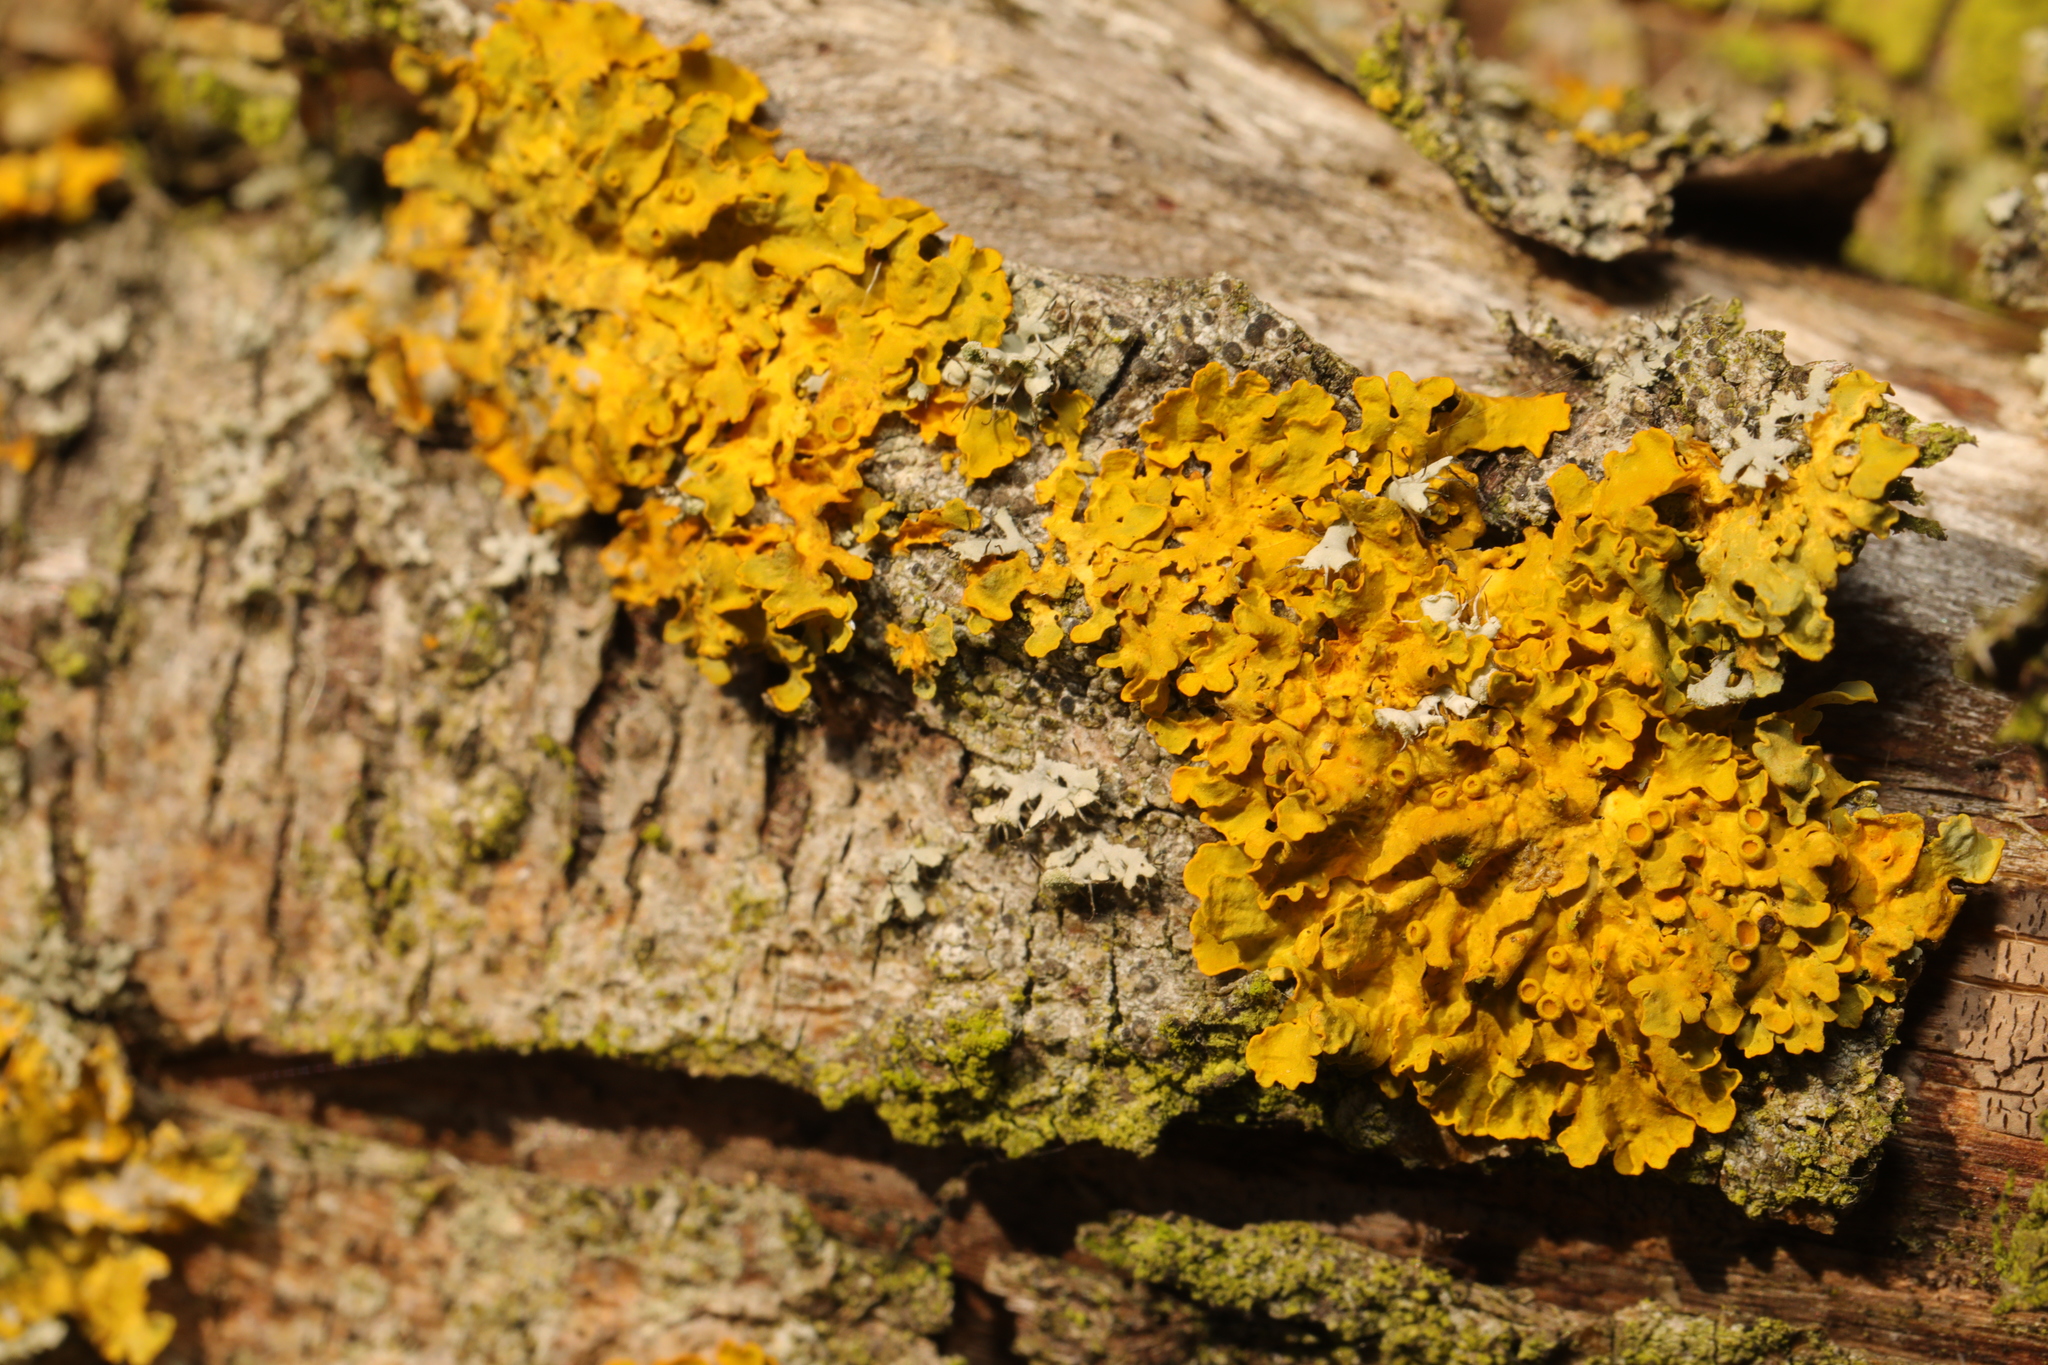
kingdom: Fungi
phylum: Ascomycota
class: Lecanoromycetes
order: Teloschistales
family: Teloschistaceae
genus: Xanthoria
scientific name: Xanthoria parietina
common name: Common orange lichen
